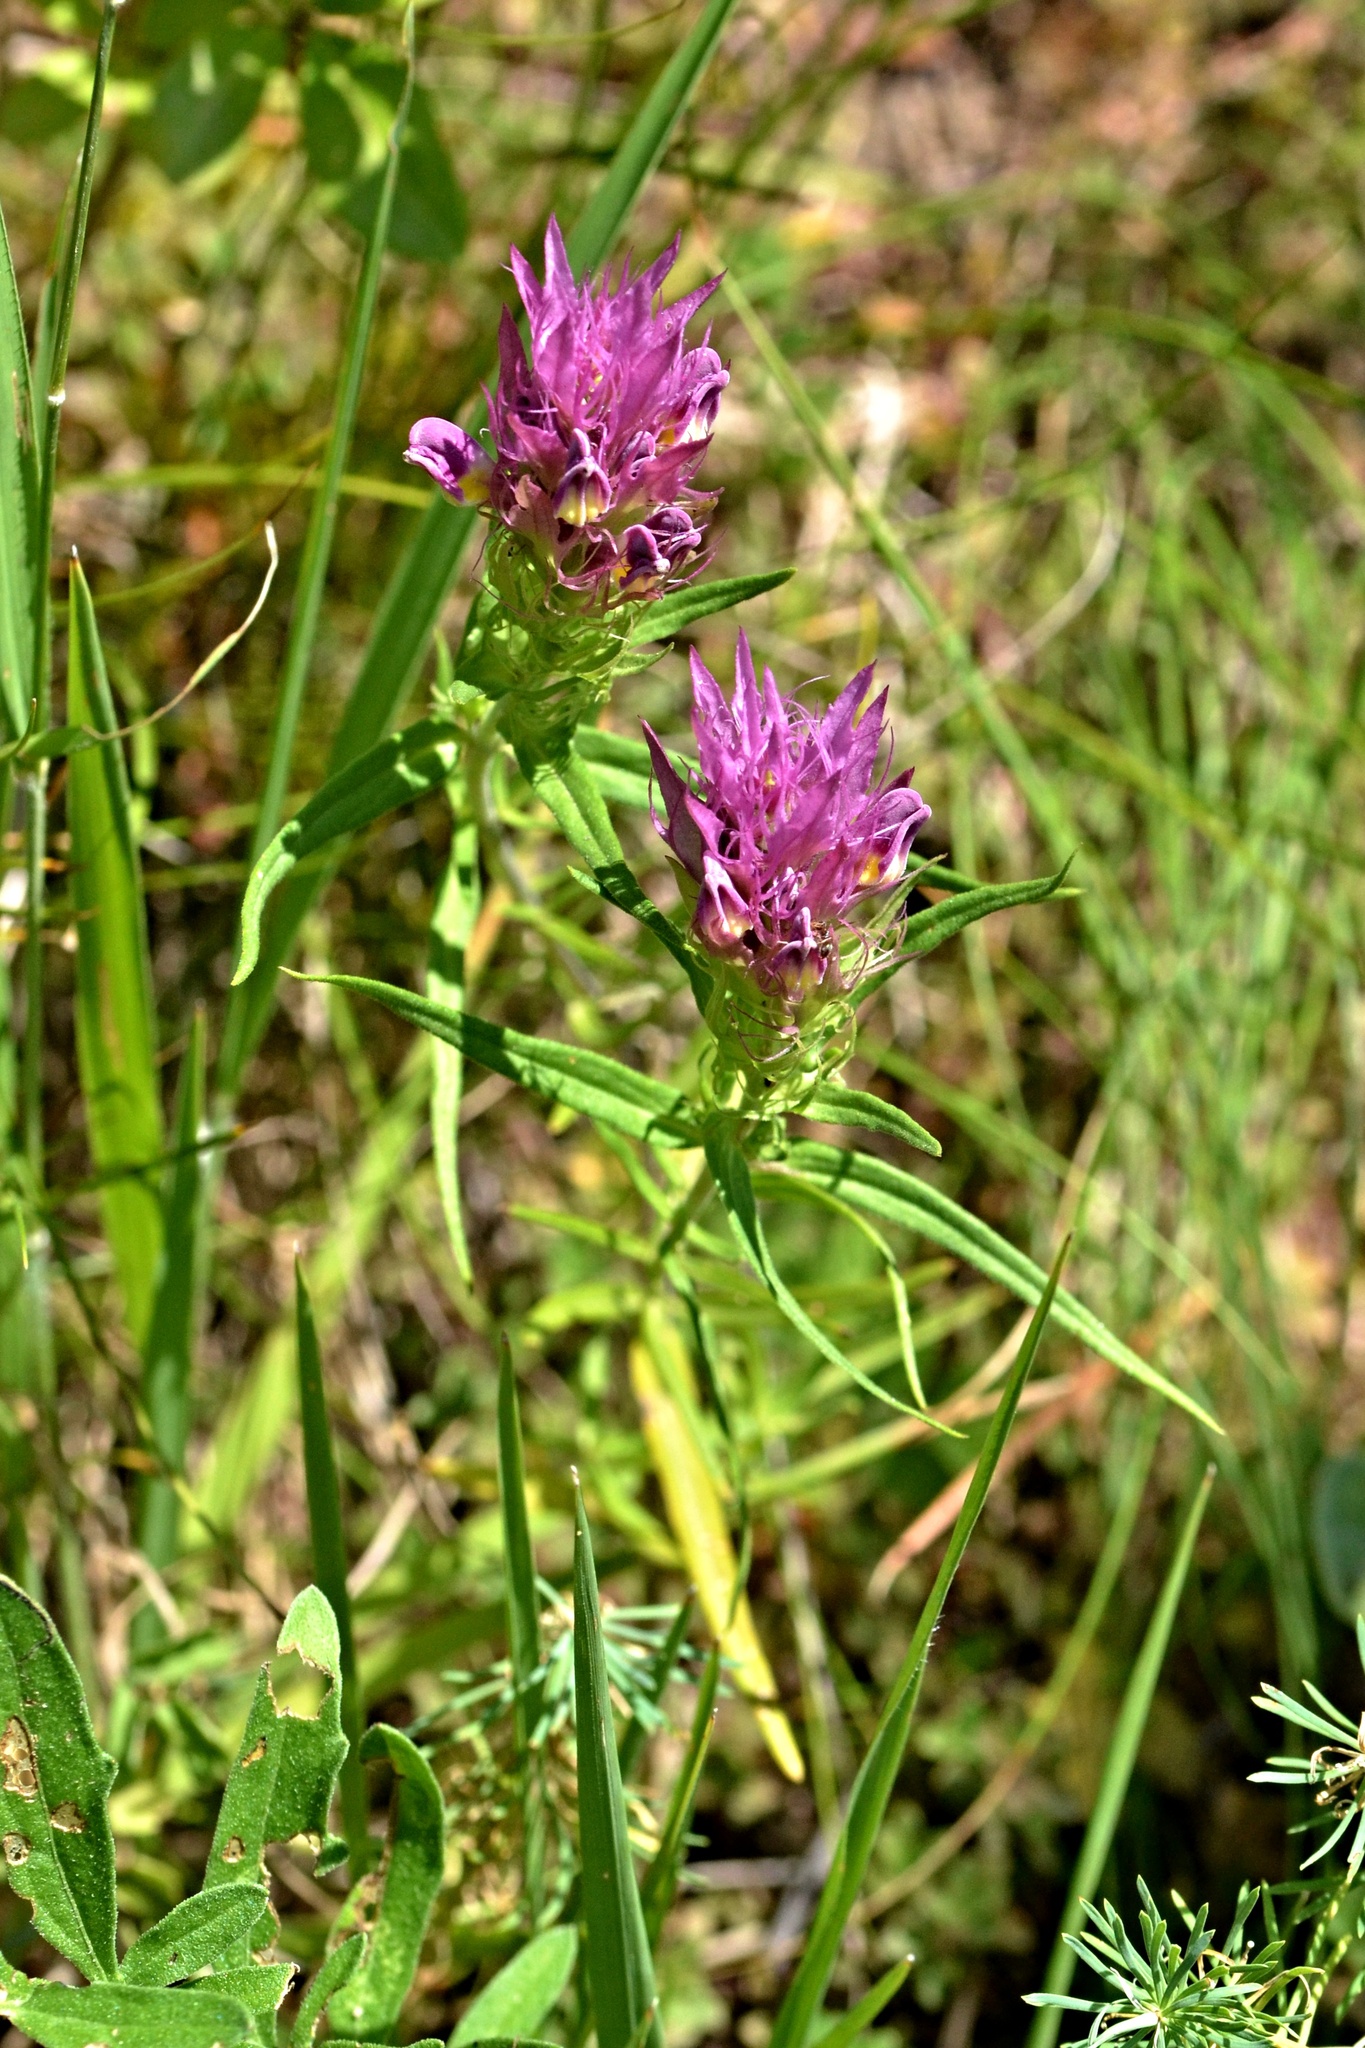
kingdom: Plantae
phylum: Tracheophyta
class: Magnoliopsida
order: Lamiales
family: Orobanchaceae
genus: Melampyrum
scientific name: Melampyrum arvense
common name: Field cow-wheat
